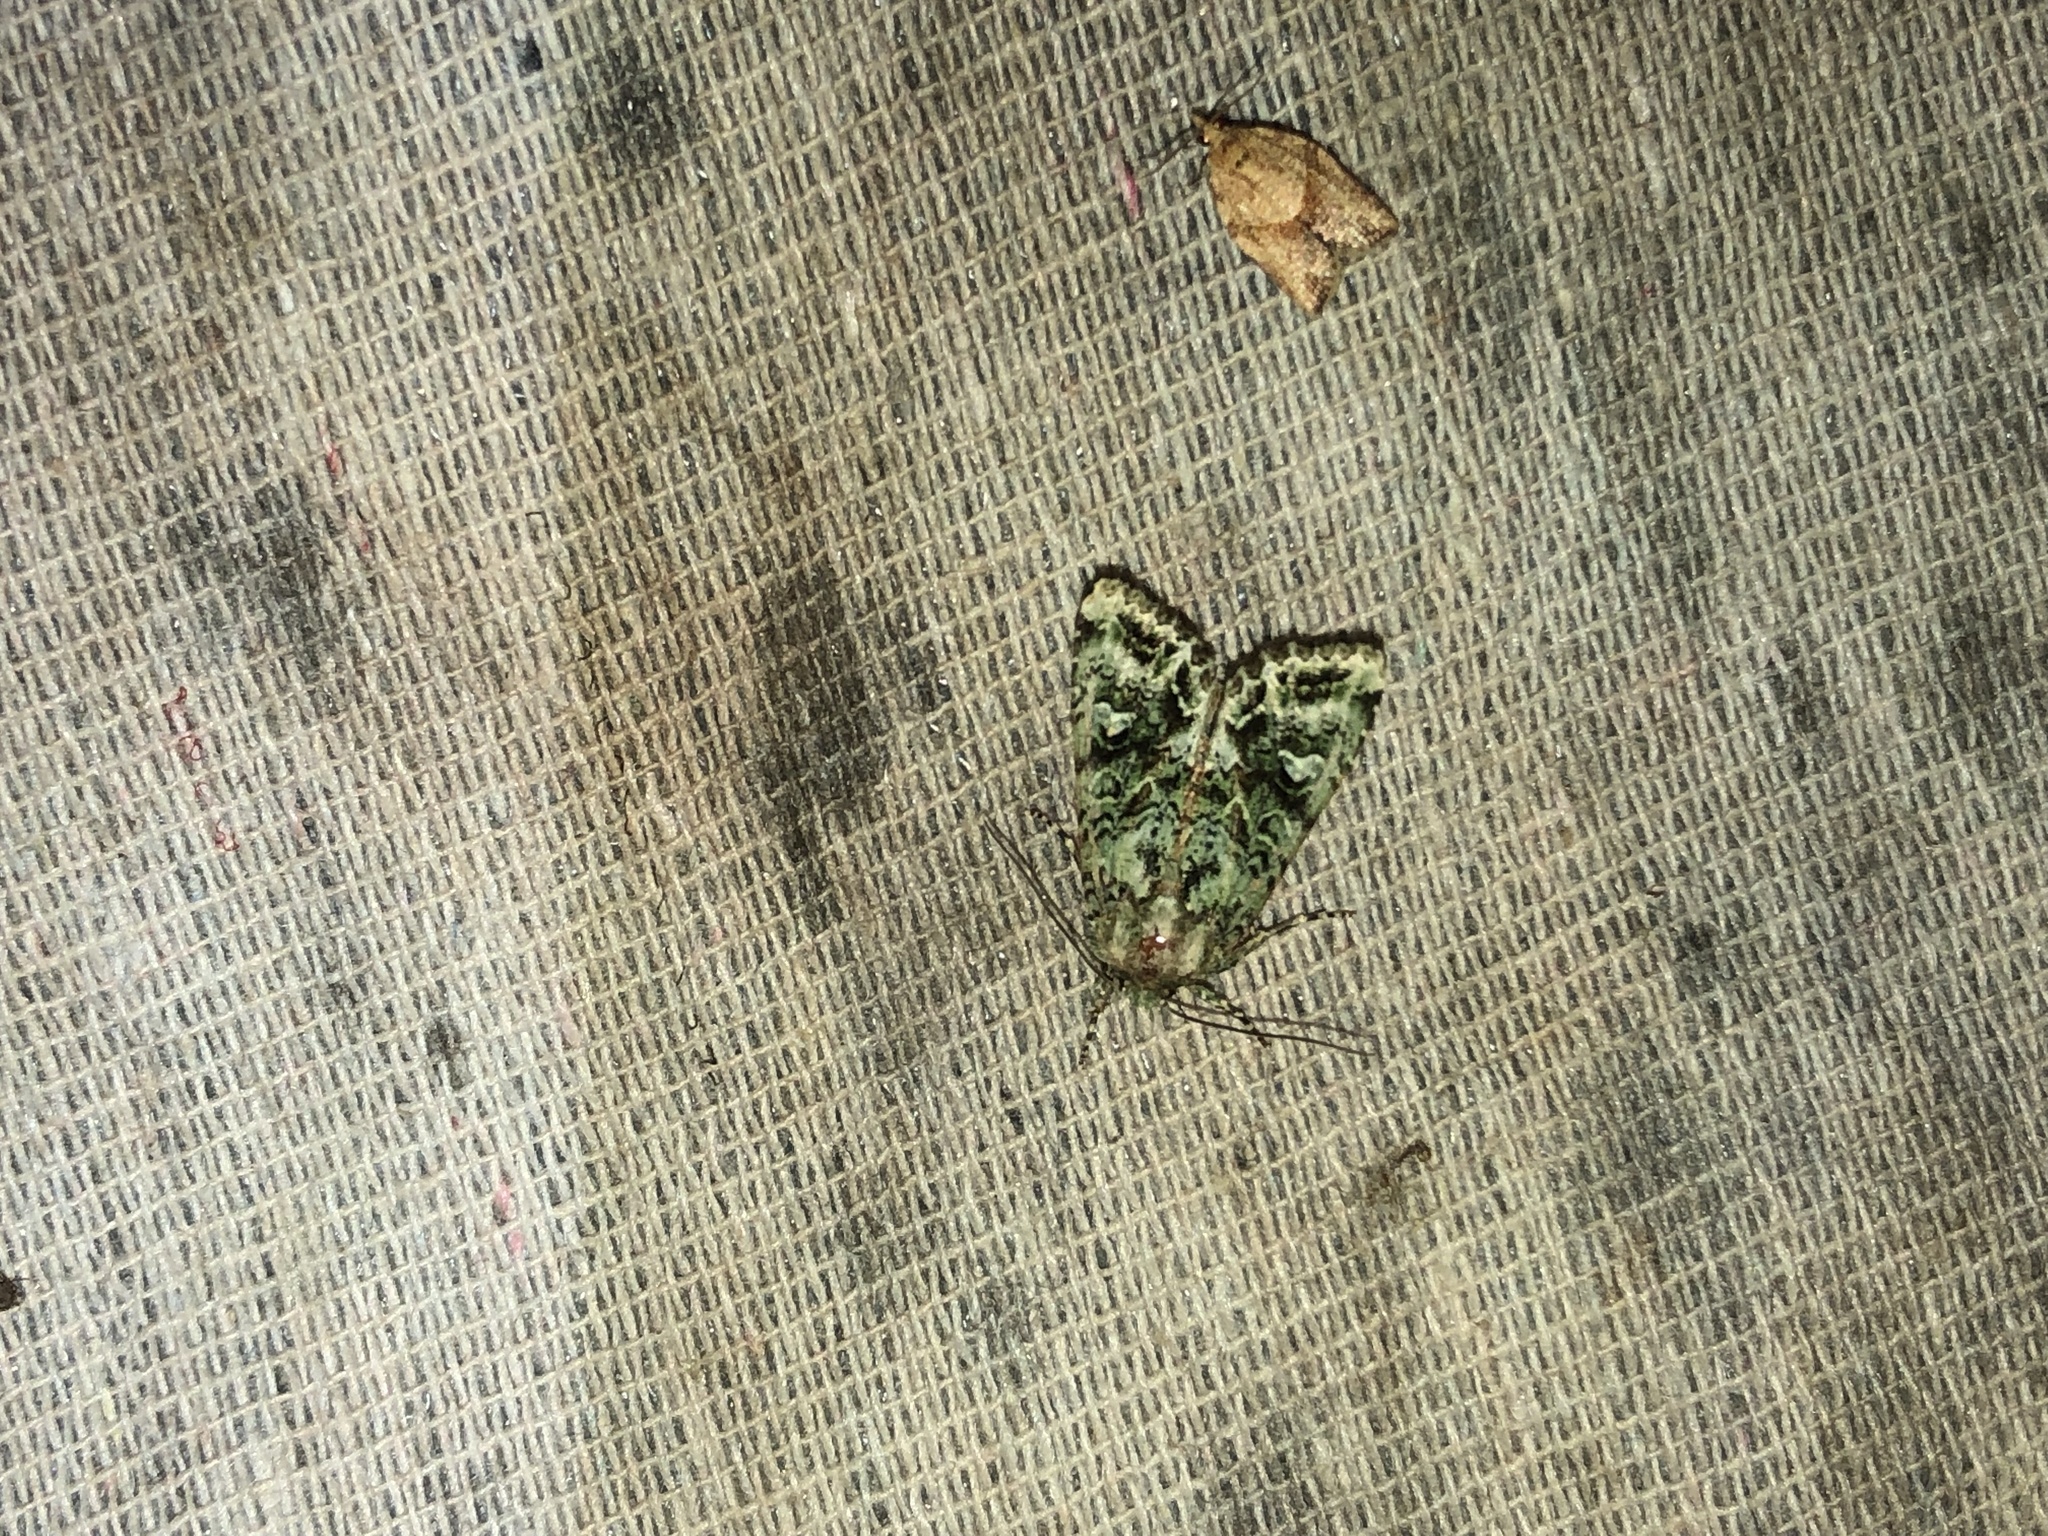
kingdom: Animalia
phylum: Arthropoda
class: Insecta
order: Lepidoptera
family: Noctuidae
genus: Ichneutica
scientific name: Ichneutica
